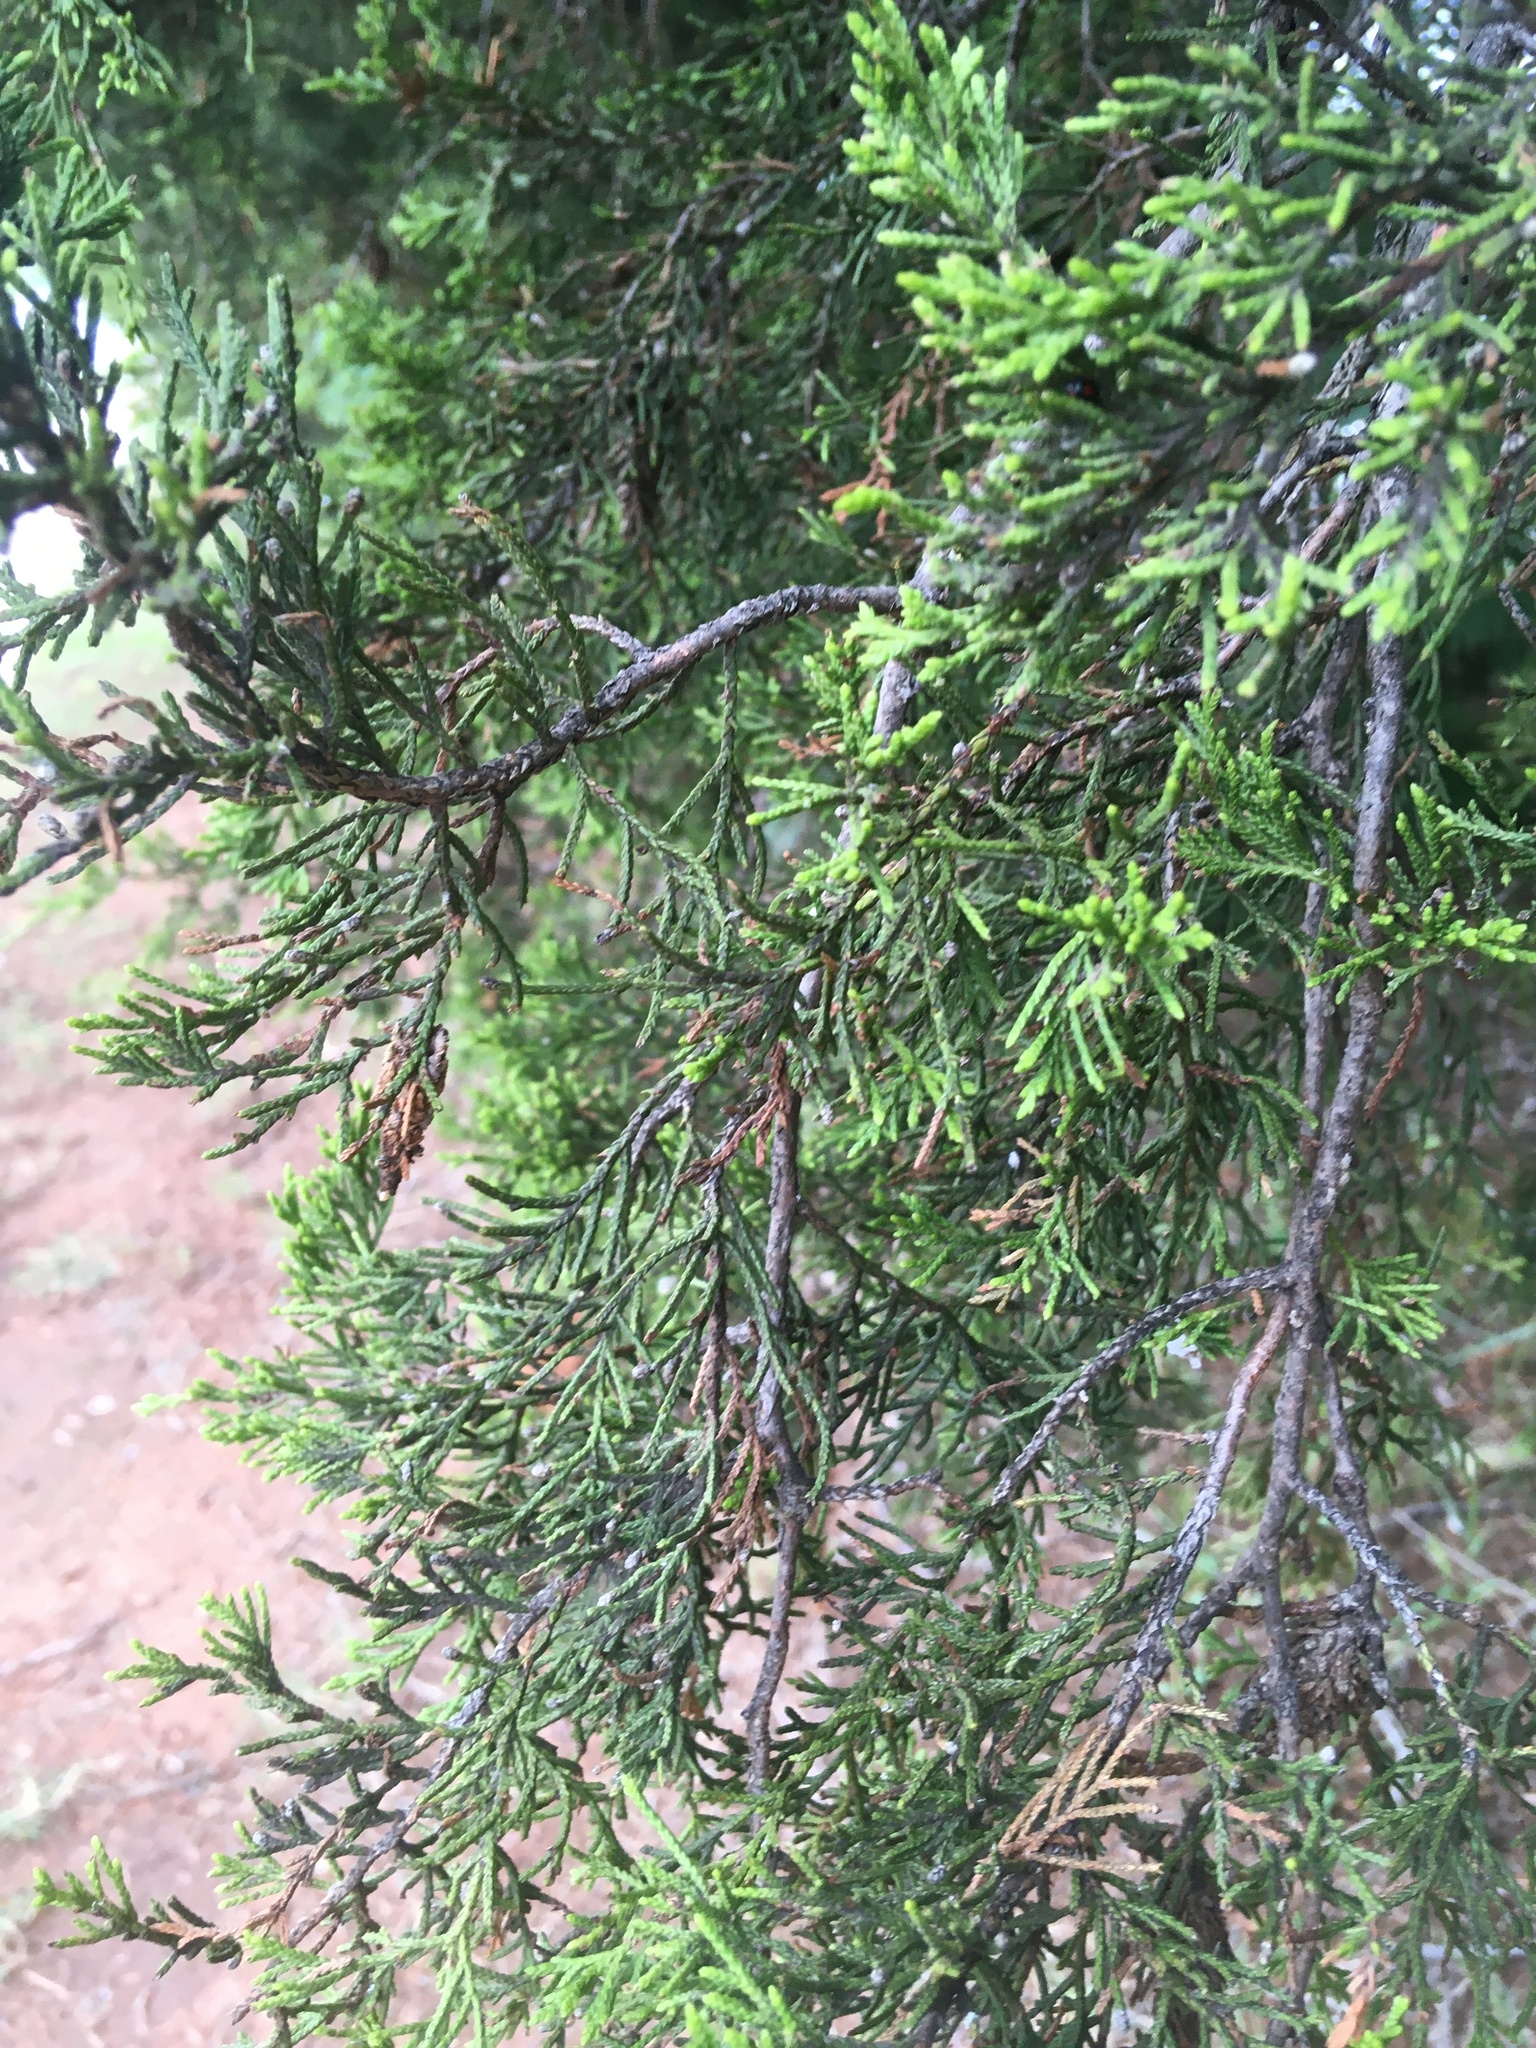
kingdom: Plantae
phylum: Tracheophyta
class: Pinopsida
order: Pinales
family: Cupressaceae
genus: Juniperus
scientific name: Juniperus virginiana
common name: Red juniper
